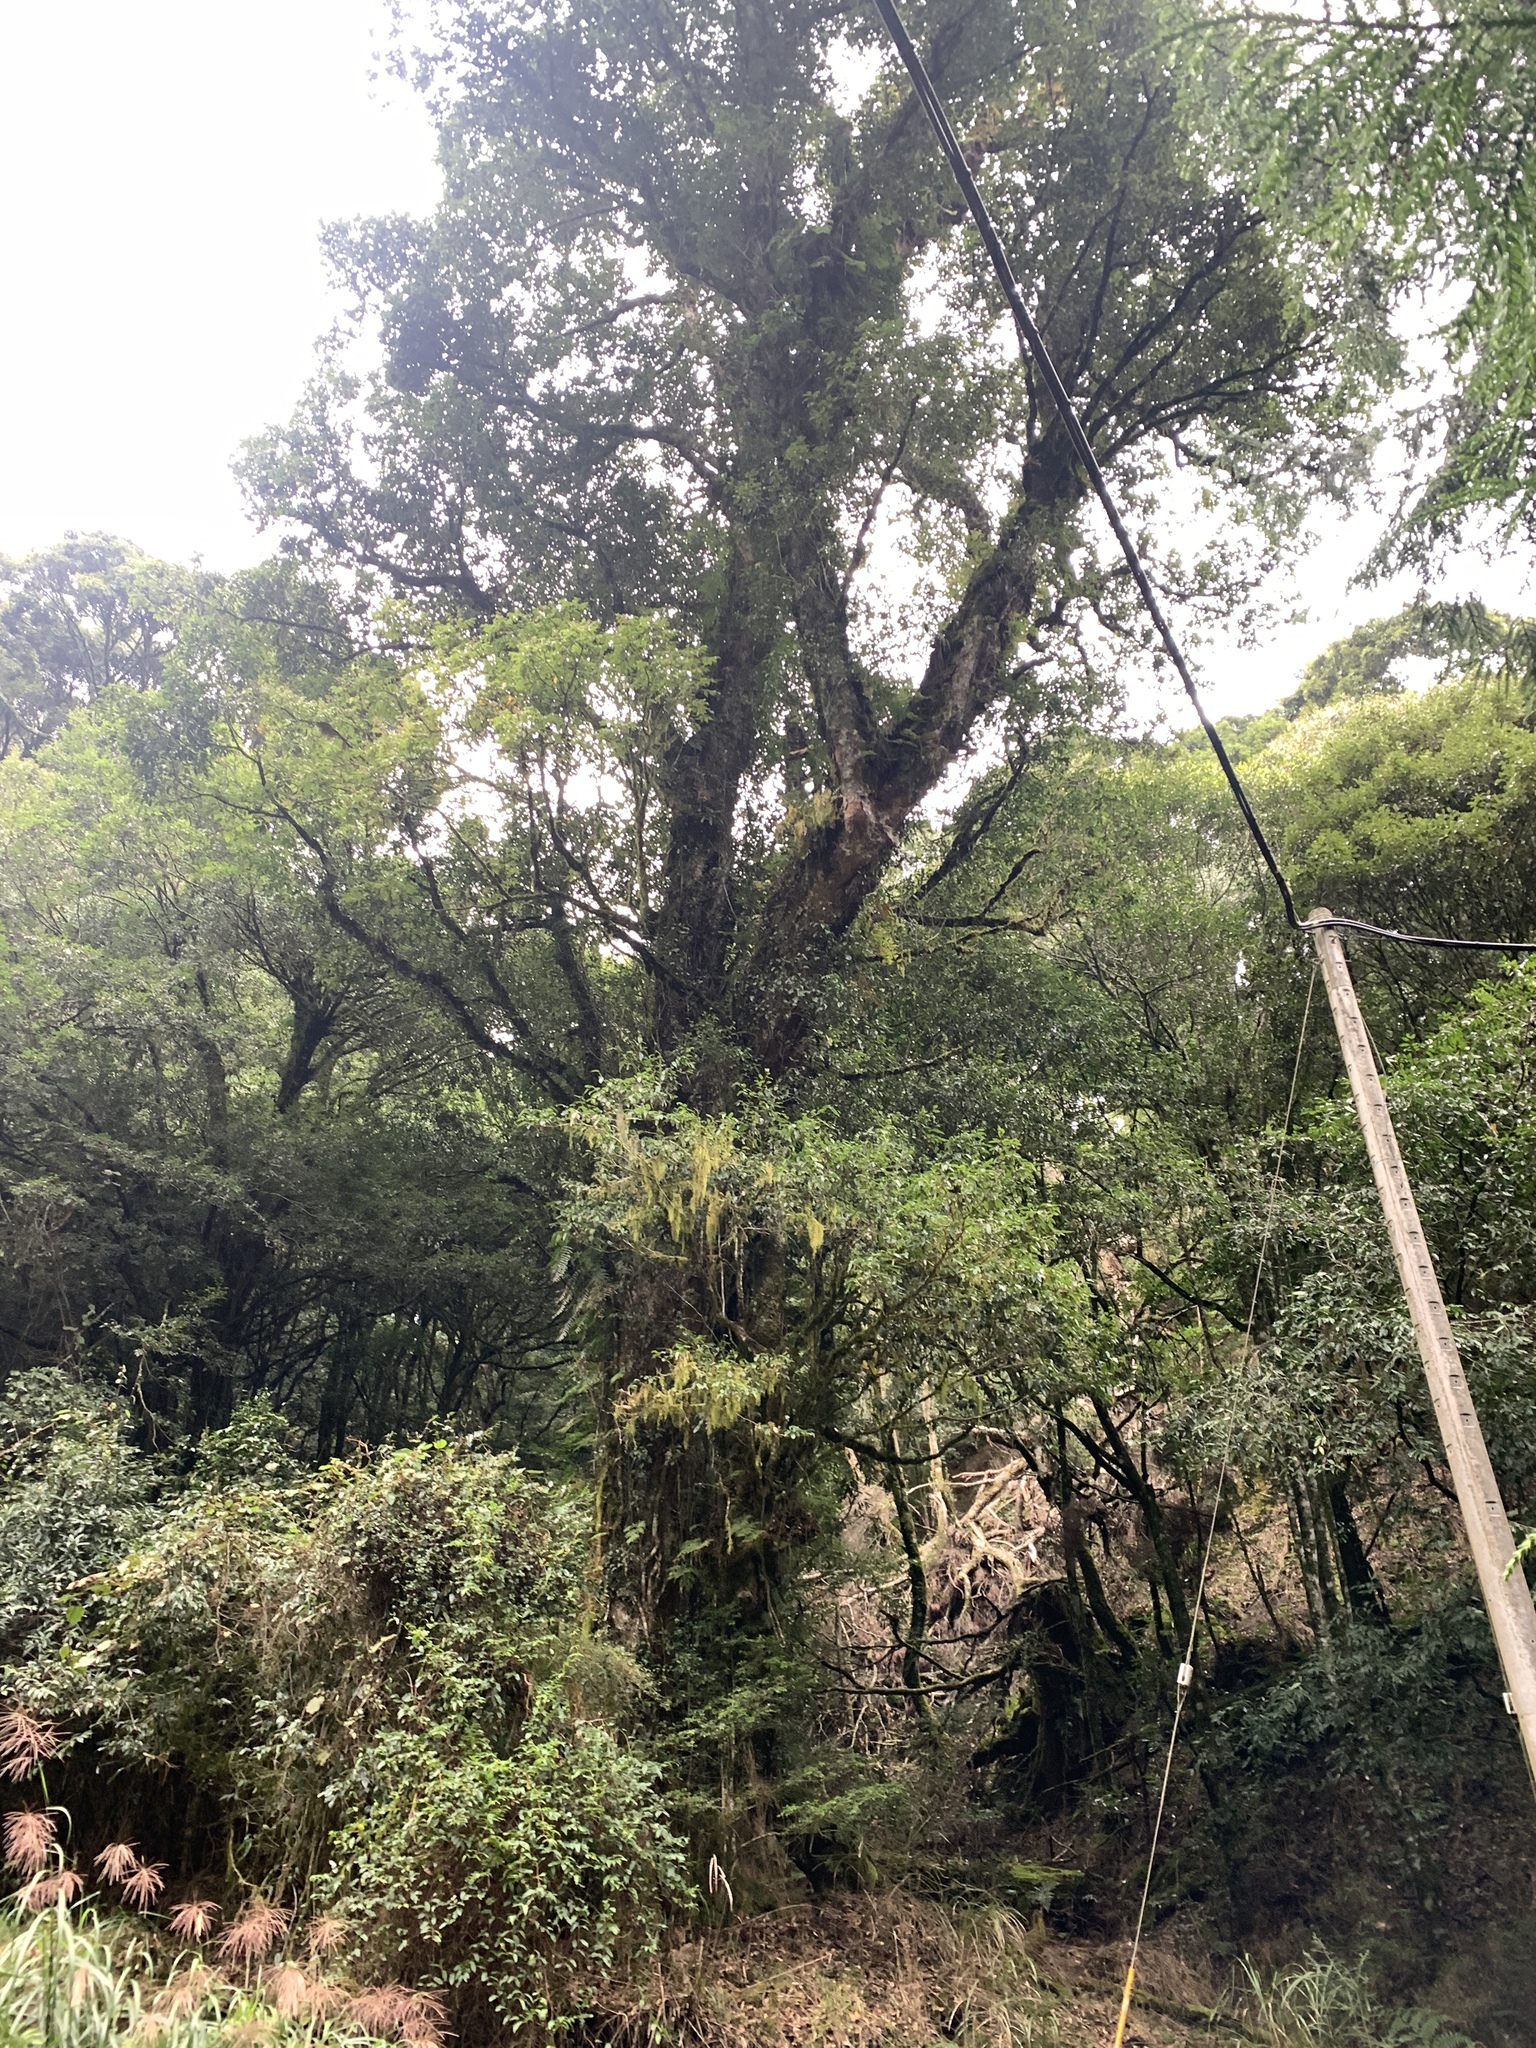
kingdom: Plantae
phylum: Tracheophyta
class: Magnoliopsida
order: Fagales
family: Fagaceae
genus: Quercus
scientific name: Quercus morii
